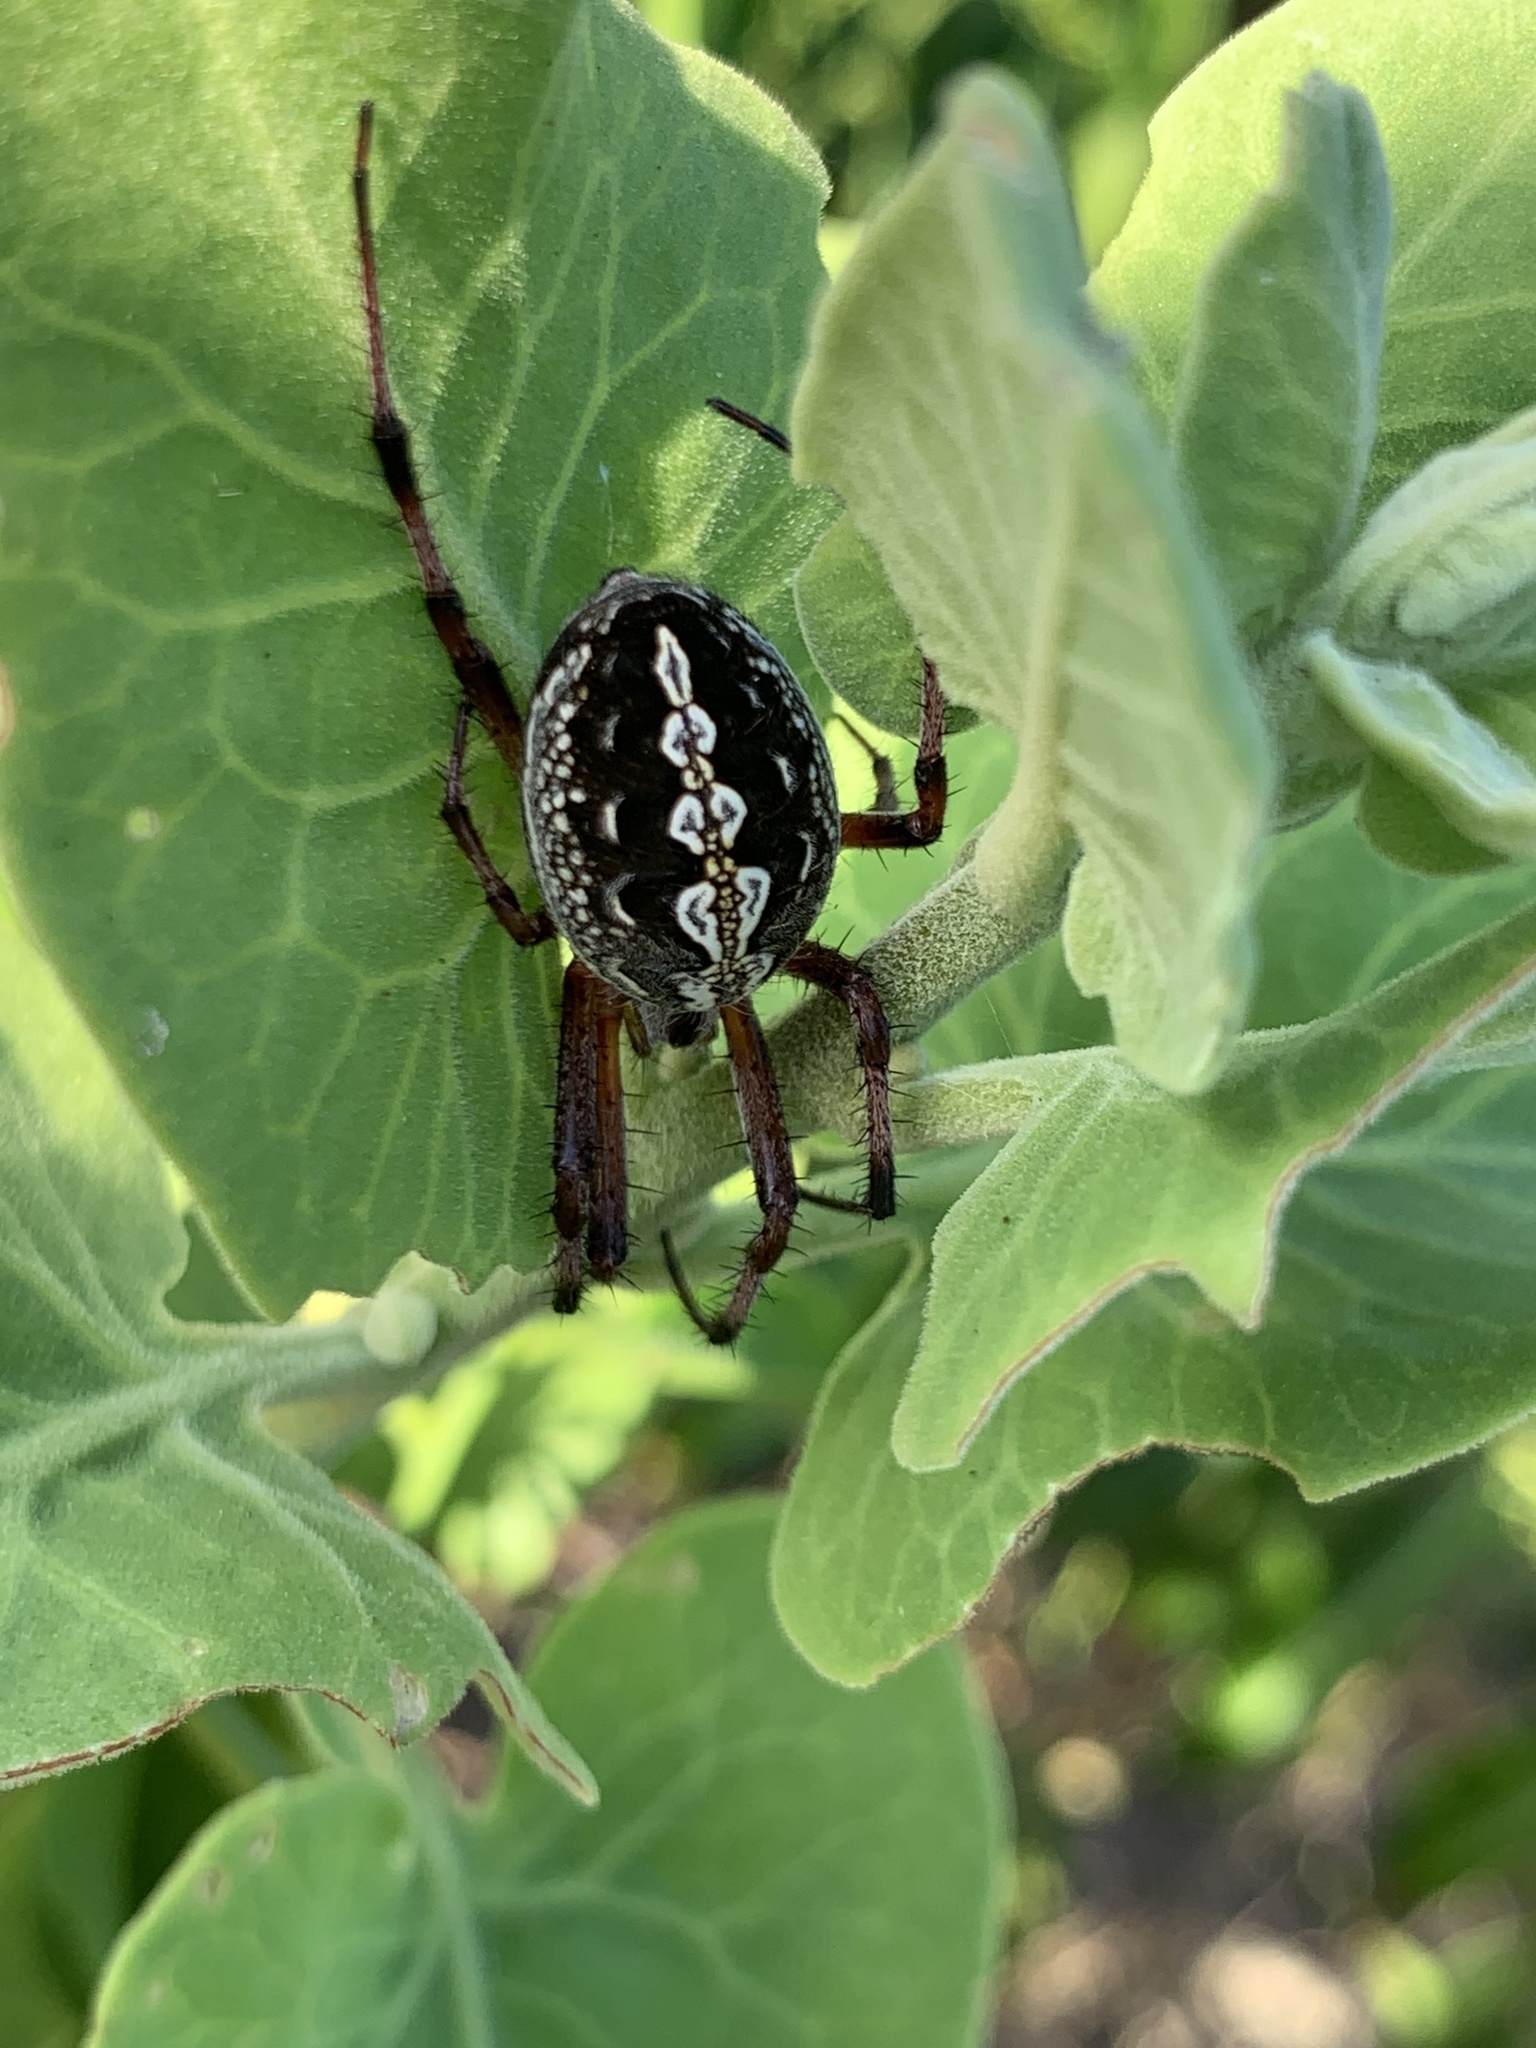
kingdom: Animalia
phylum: Arthropoda
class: Arachnida
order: Araneae
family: Araneidae
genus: Neoscona
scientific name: Neoscona oaxacensis
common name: Orb weavers
